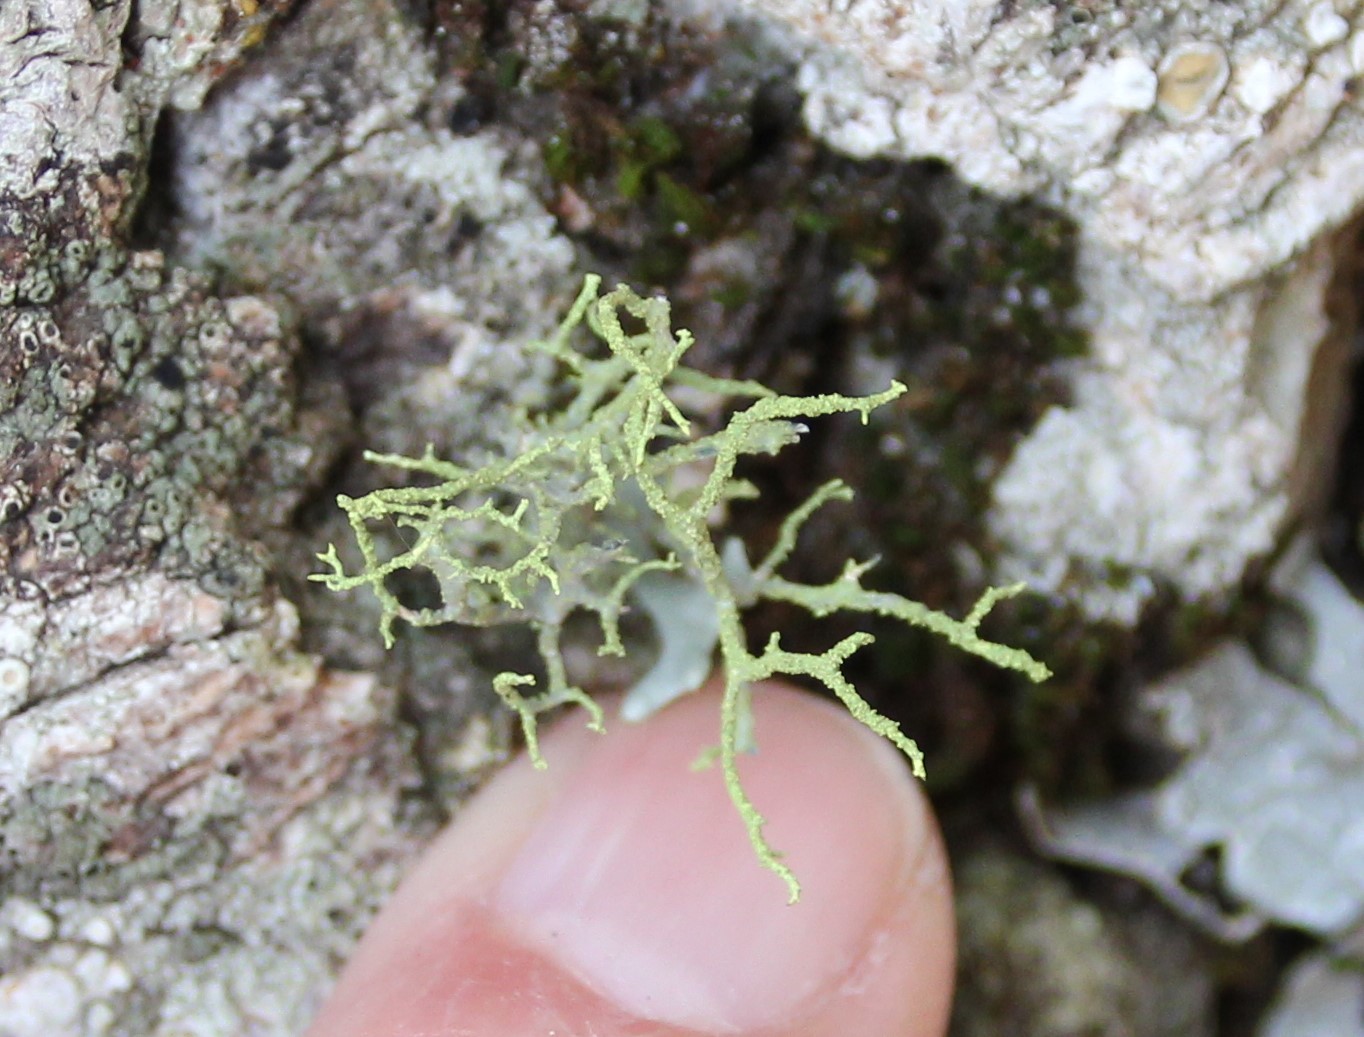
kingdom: Fungi
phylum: Ascomycota
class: Lecanoromycetes
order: Lecanorales
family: Parmeliaceae
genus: Letharia
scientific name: Letharia vulpina
